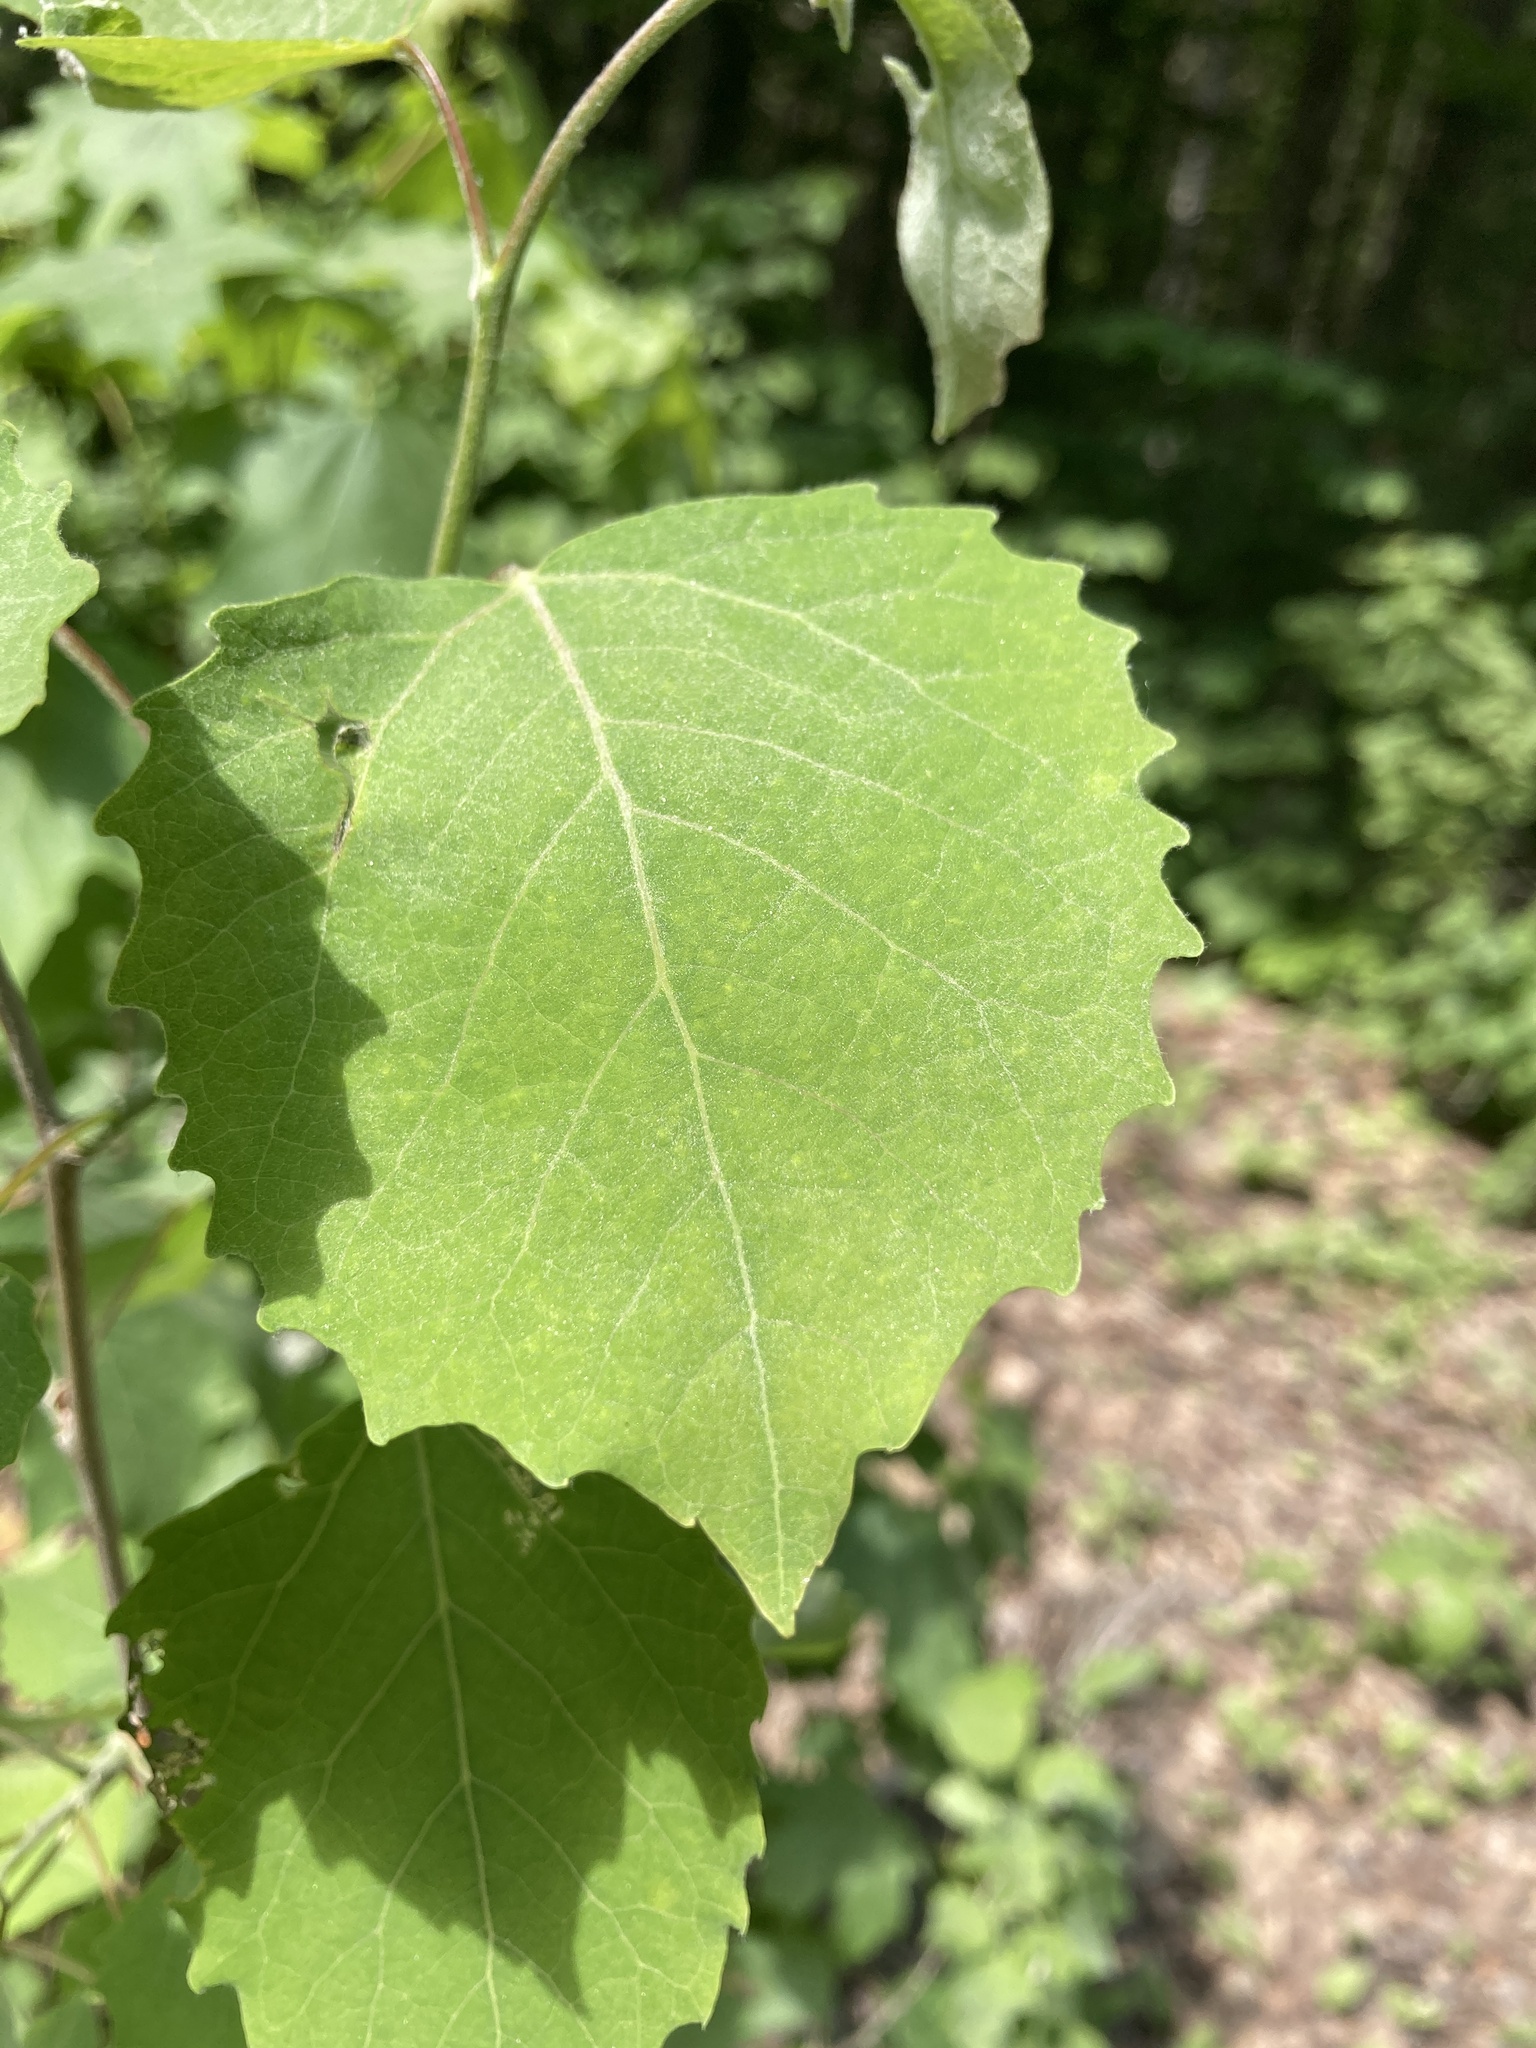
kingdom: Plantae
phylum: Tracheophyta
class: Magnoliopsida
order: Malpighiales
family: Salicaceae
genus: Populus
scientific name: Populus grandidentata
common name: Bigtooth aspen
